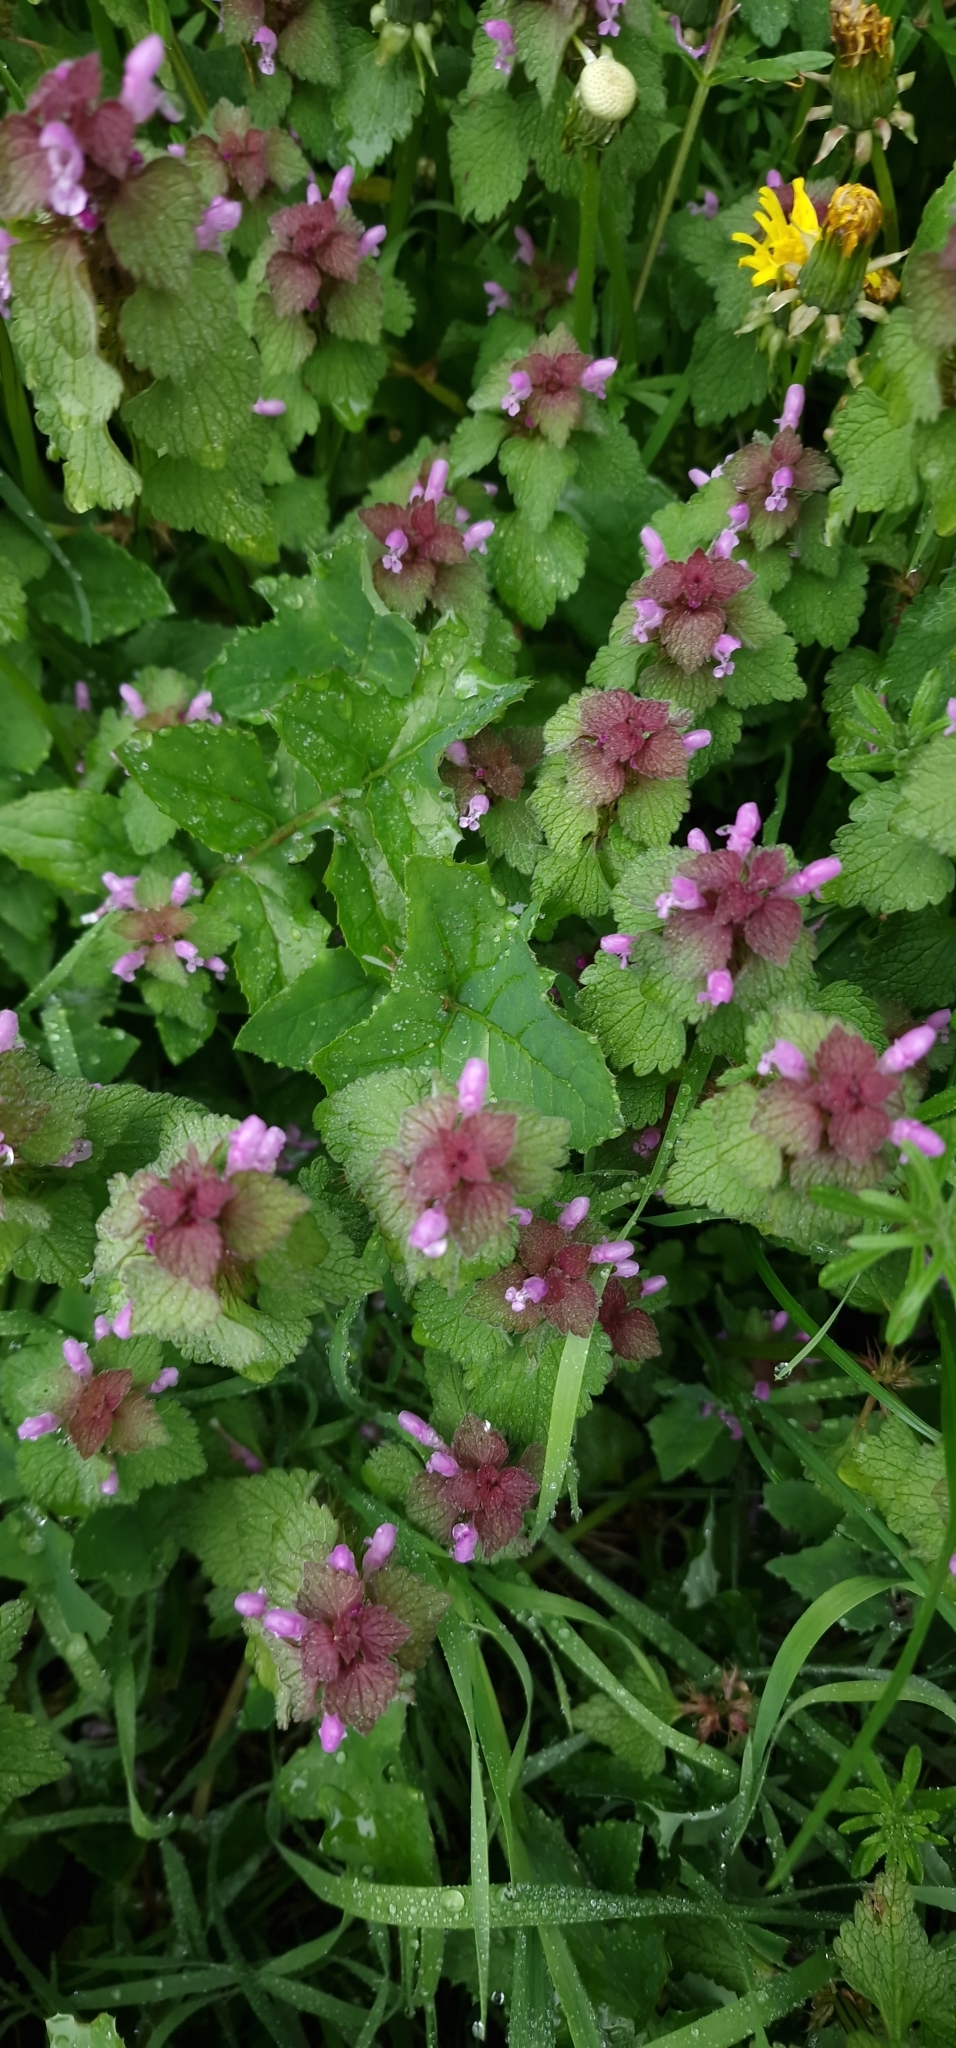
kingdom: Plantae
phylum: Tracheophyta
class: Magnoliopsida
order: Lamiales
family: Lamiaceae
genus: Lamium
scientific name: Lamium purpureum
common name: Red dead-nettle
